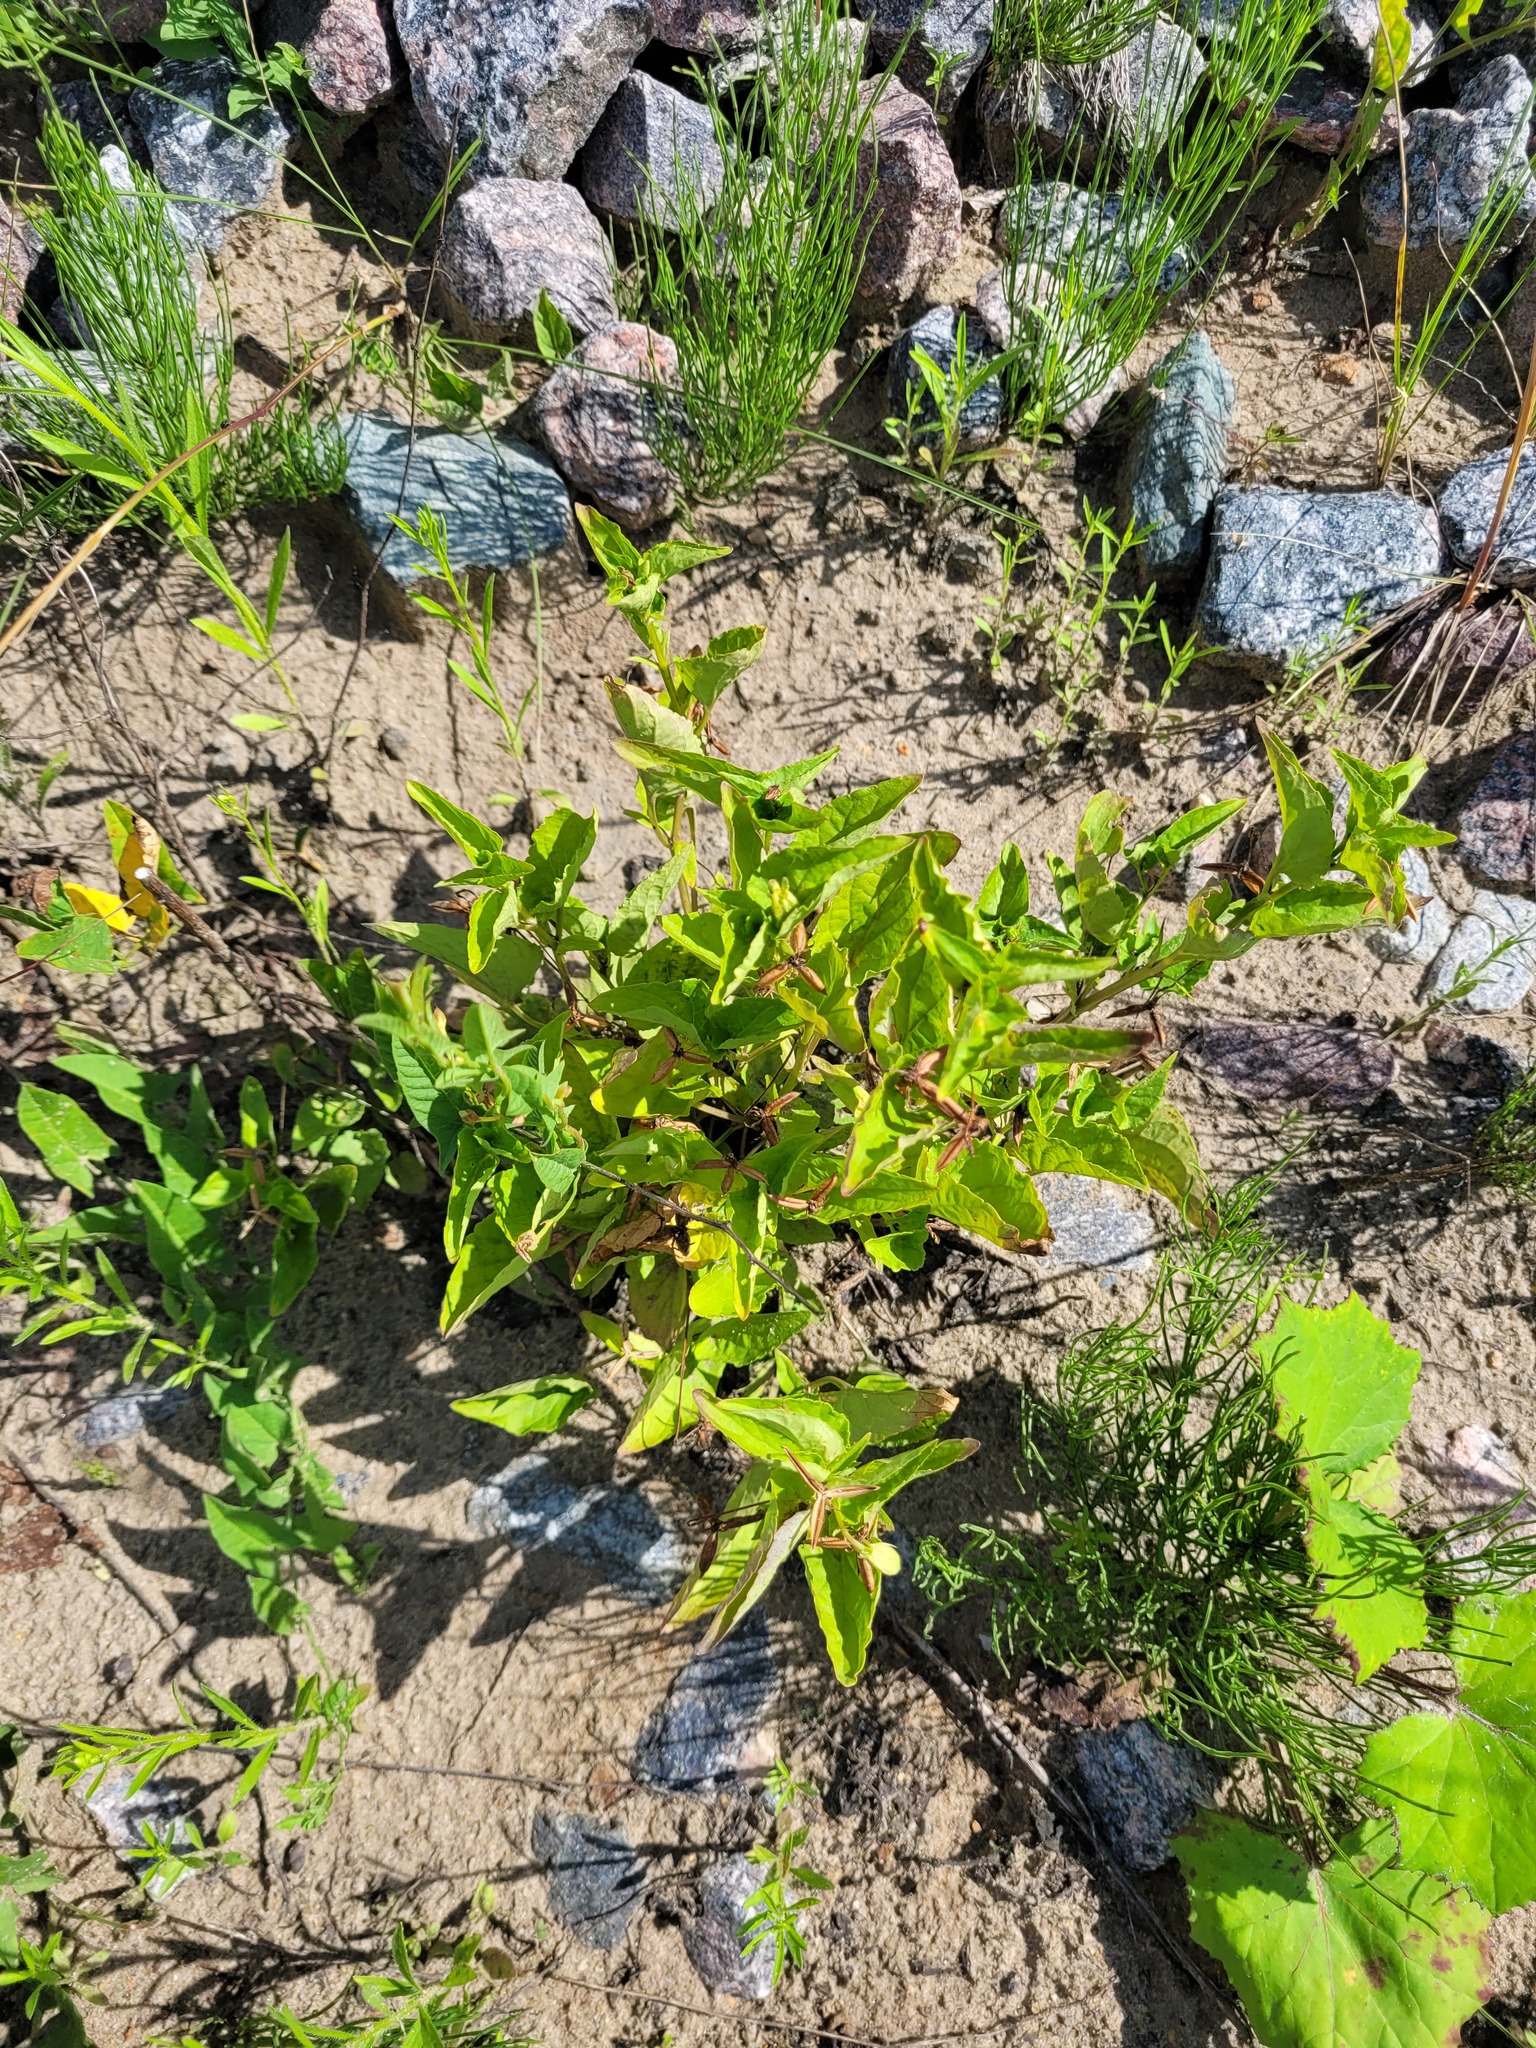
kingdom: Plantae
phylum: Tracheophyta
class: Magnoliopsida
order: Malpighiales
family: Violaceae
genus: Viola
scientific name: Viola
